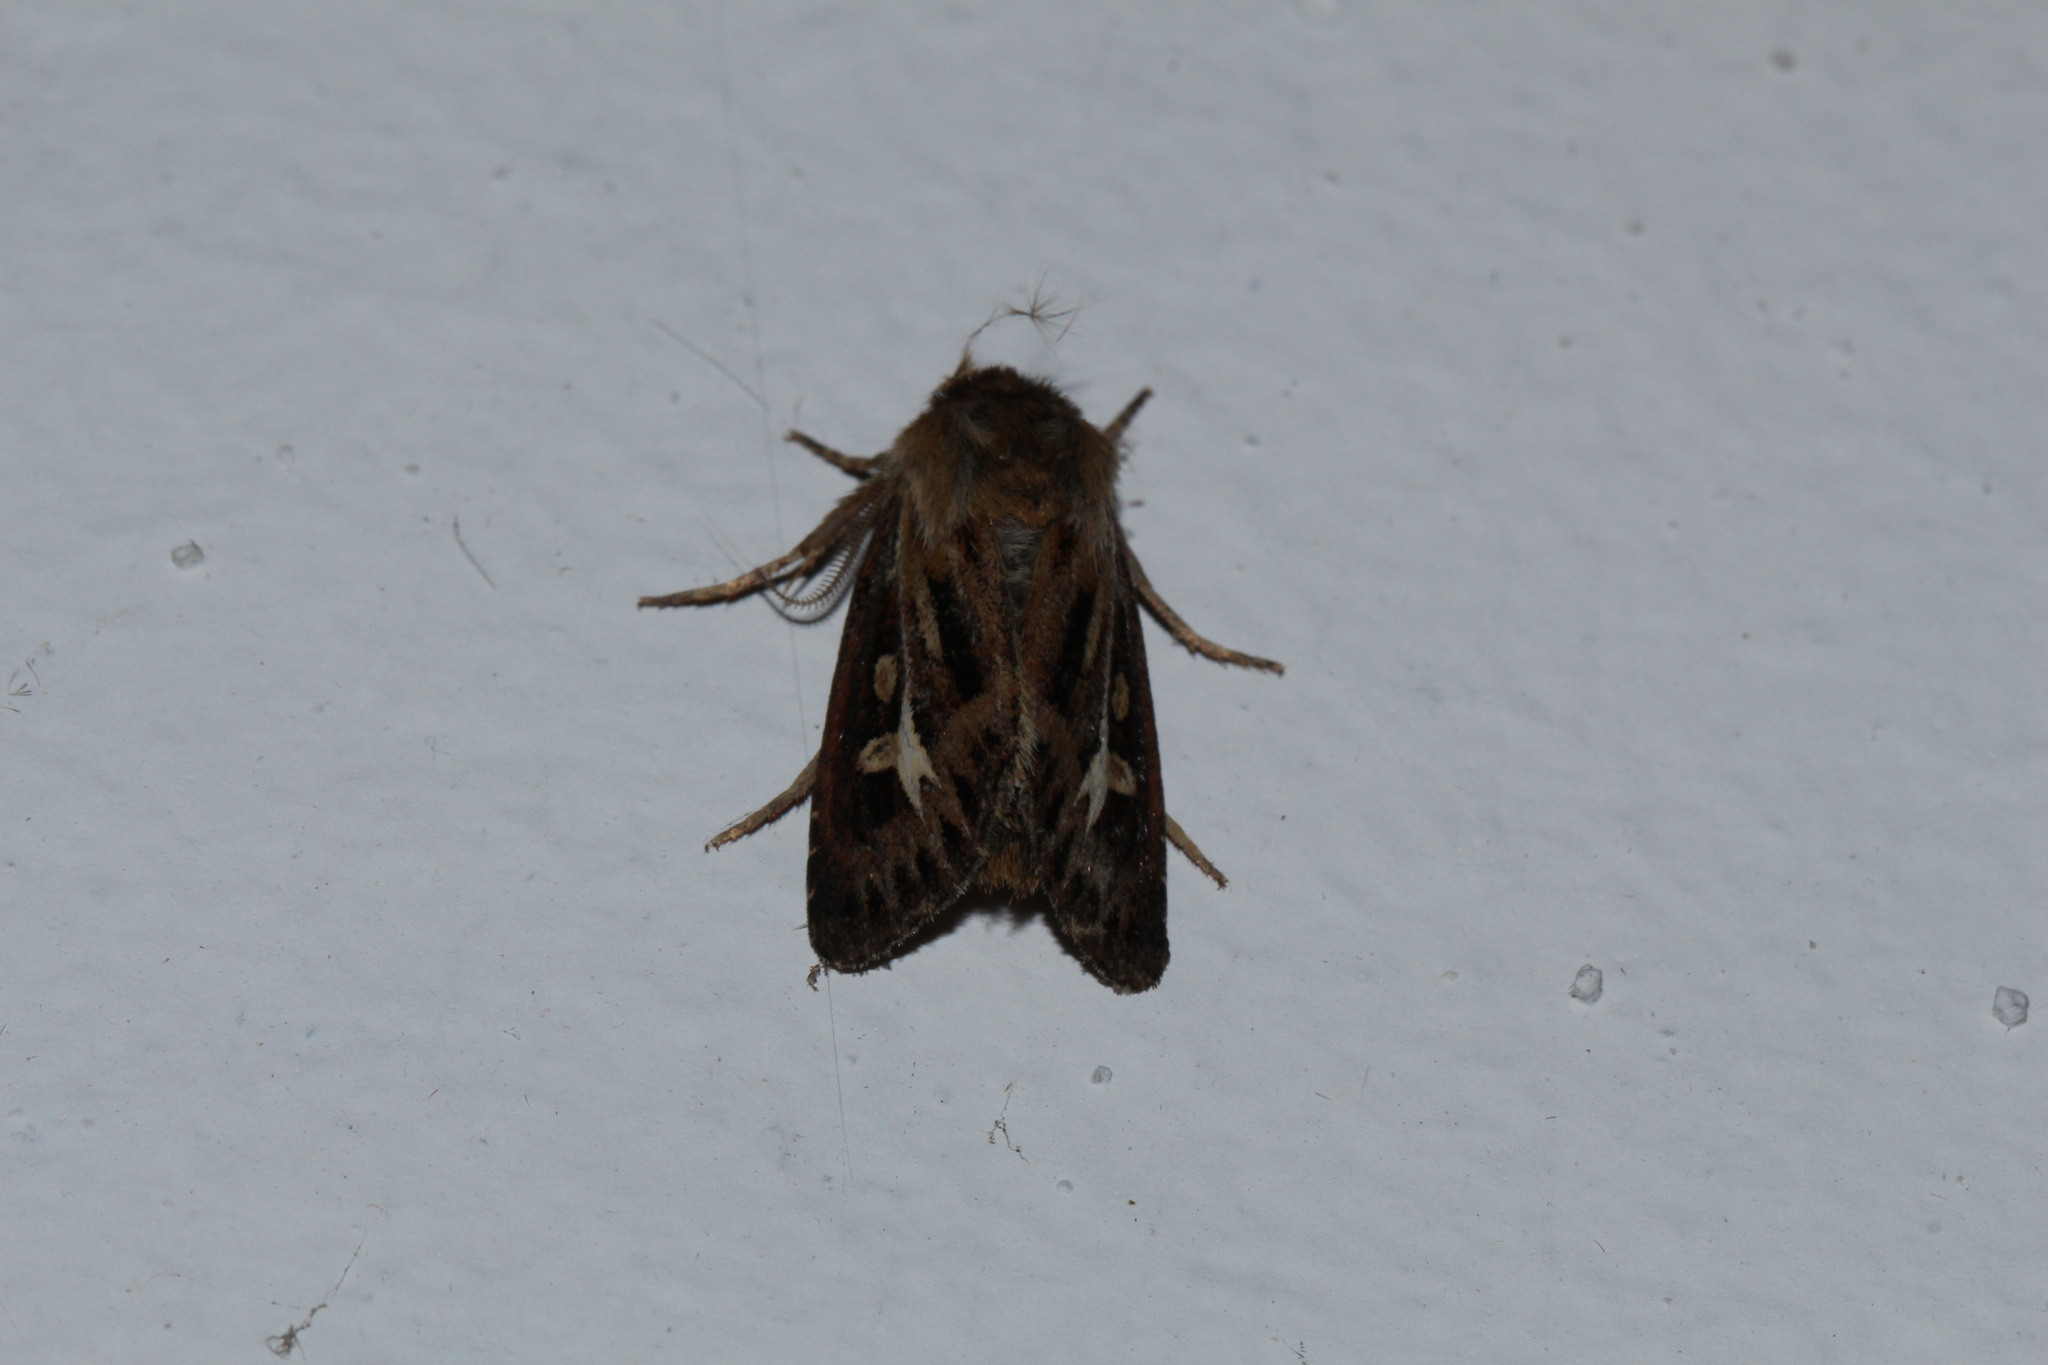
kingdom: Animalia
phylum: Arthropoda
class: Insecta
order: Lepidoptera
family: Noctuidae
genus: Cerapteryx
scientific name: Cerapteryx graminis
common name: Antler moth
